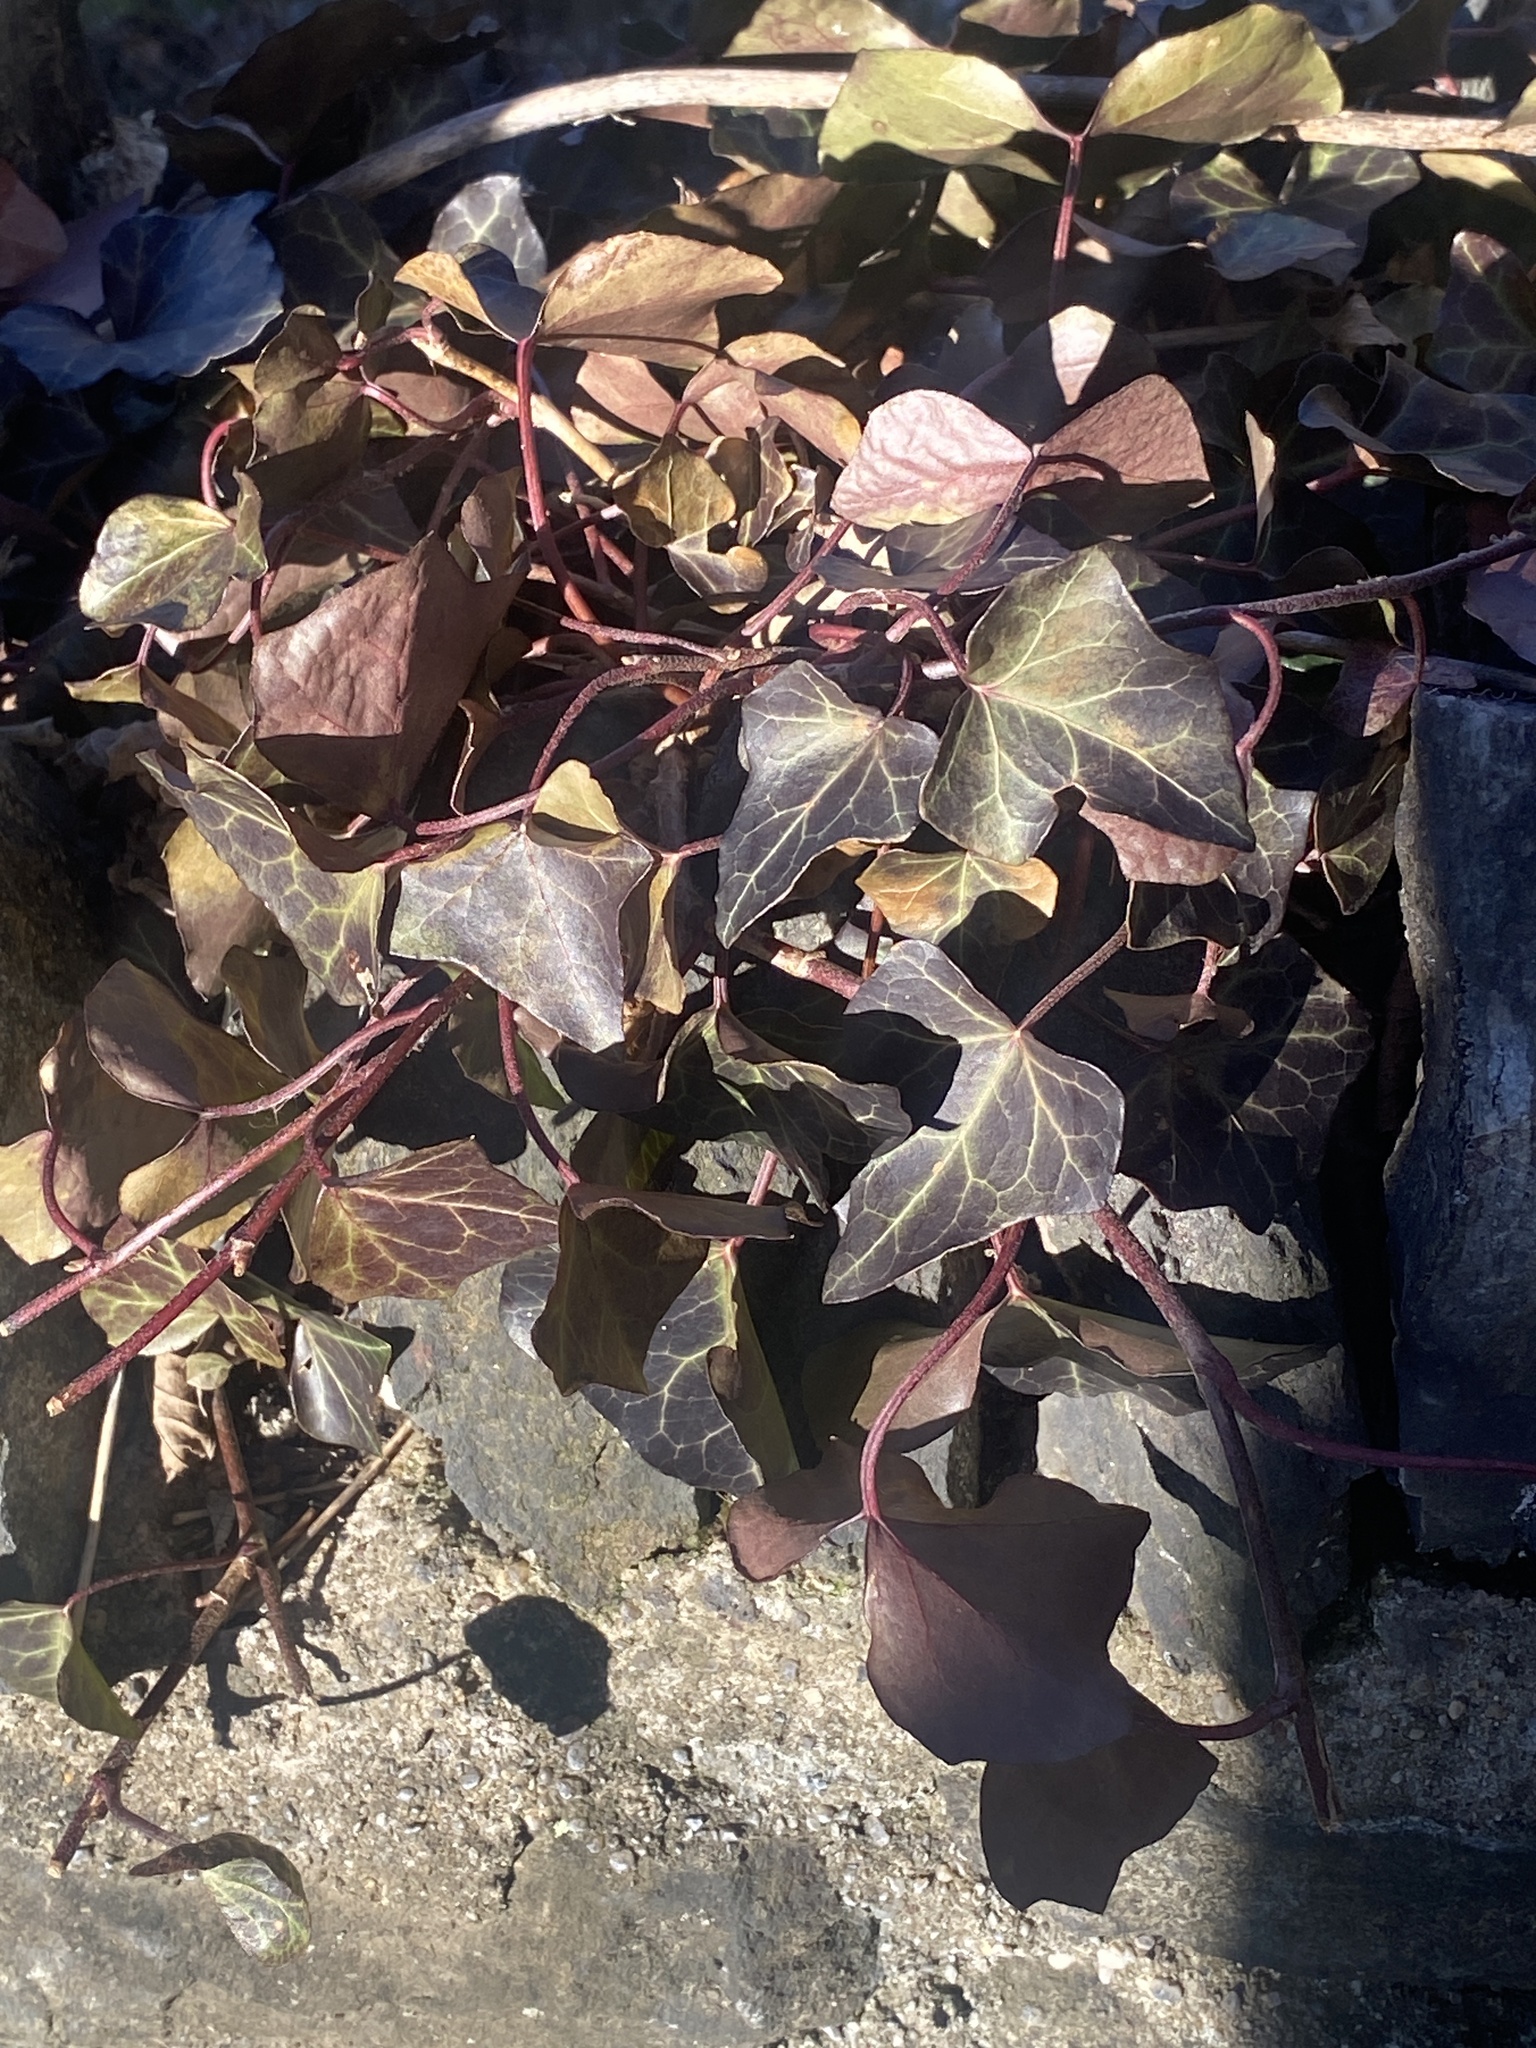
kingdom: Plantae
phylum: Tracheophyta
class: Magnoliopsida
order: Apiales
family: Araliaceae
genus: Hedera
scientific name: Hedera
